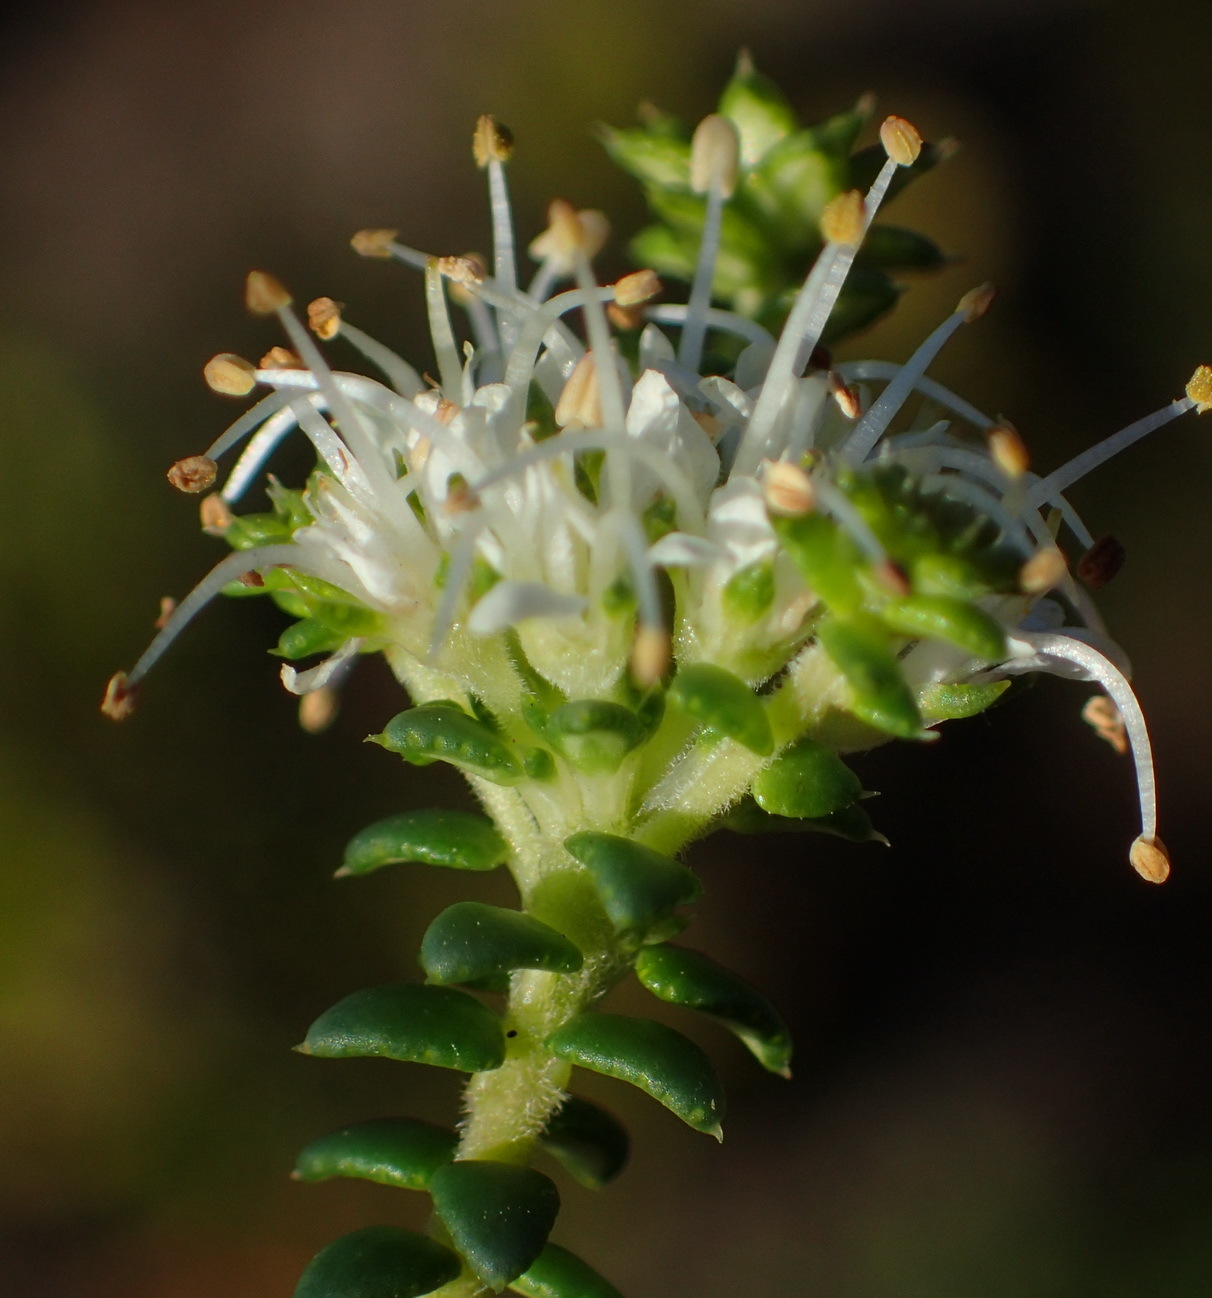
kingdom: Plantae
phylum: Tracheophyta
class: Magnoliopsida
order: Sapindales
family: Rutaceae
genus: Agathosma
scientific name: Agathosma apiculata
